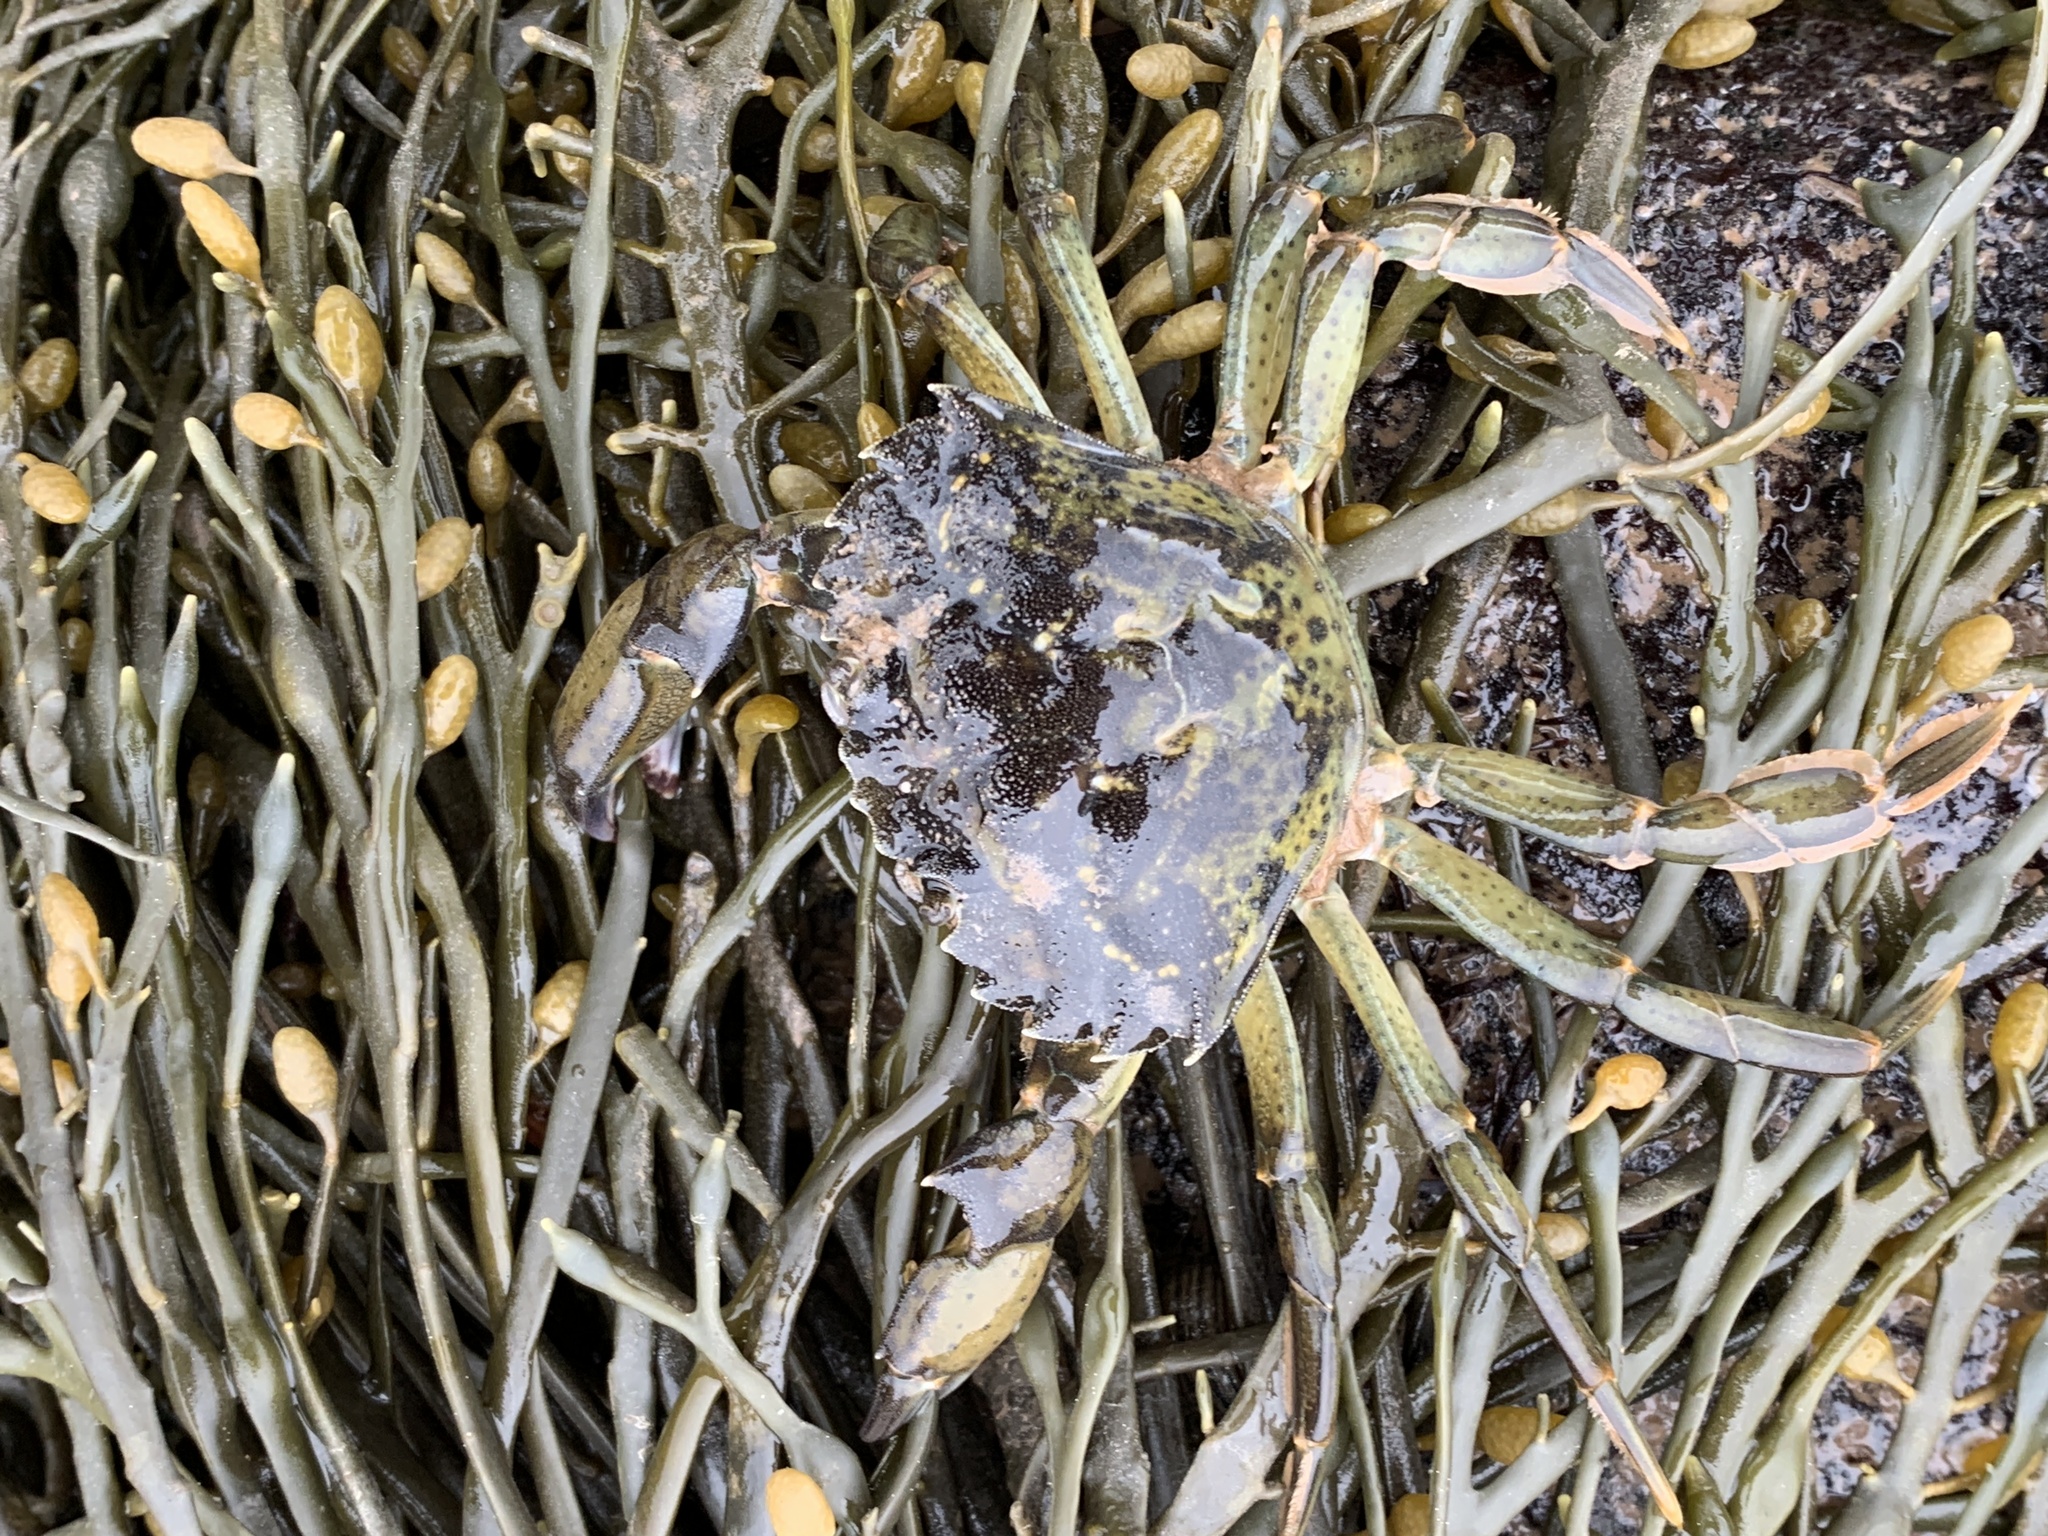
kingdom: Animalia
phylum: Arthropoda
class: Malacostraca
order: Decapoda
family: Carcinidae
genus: Carcinus
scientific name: Carcinus maenas
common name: European green crab
